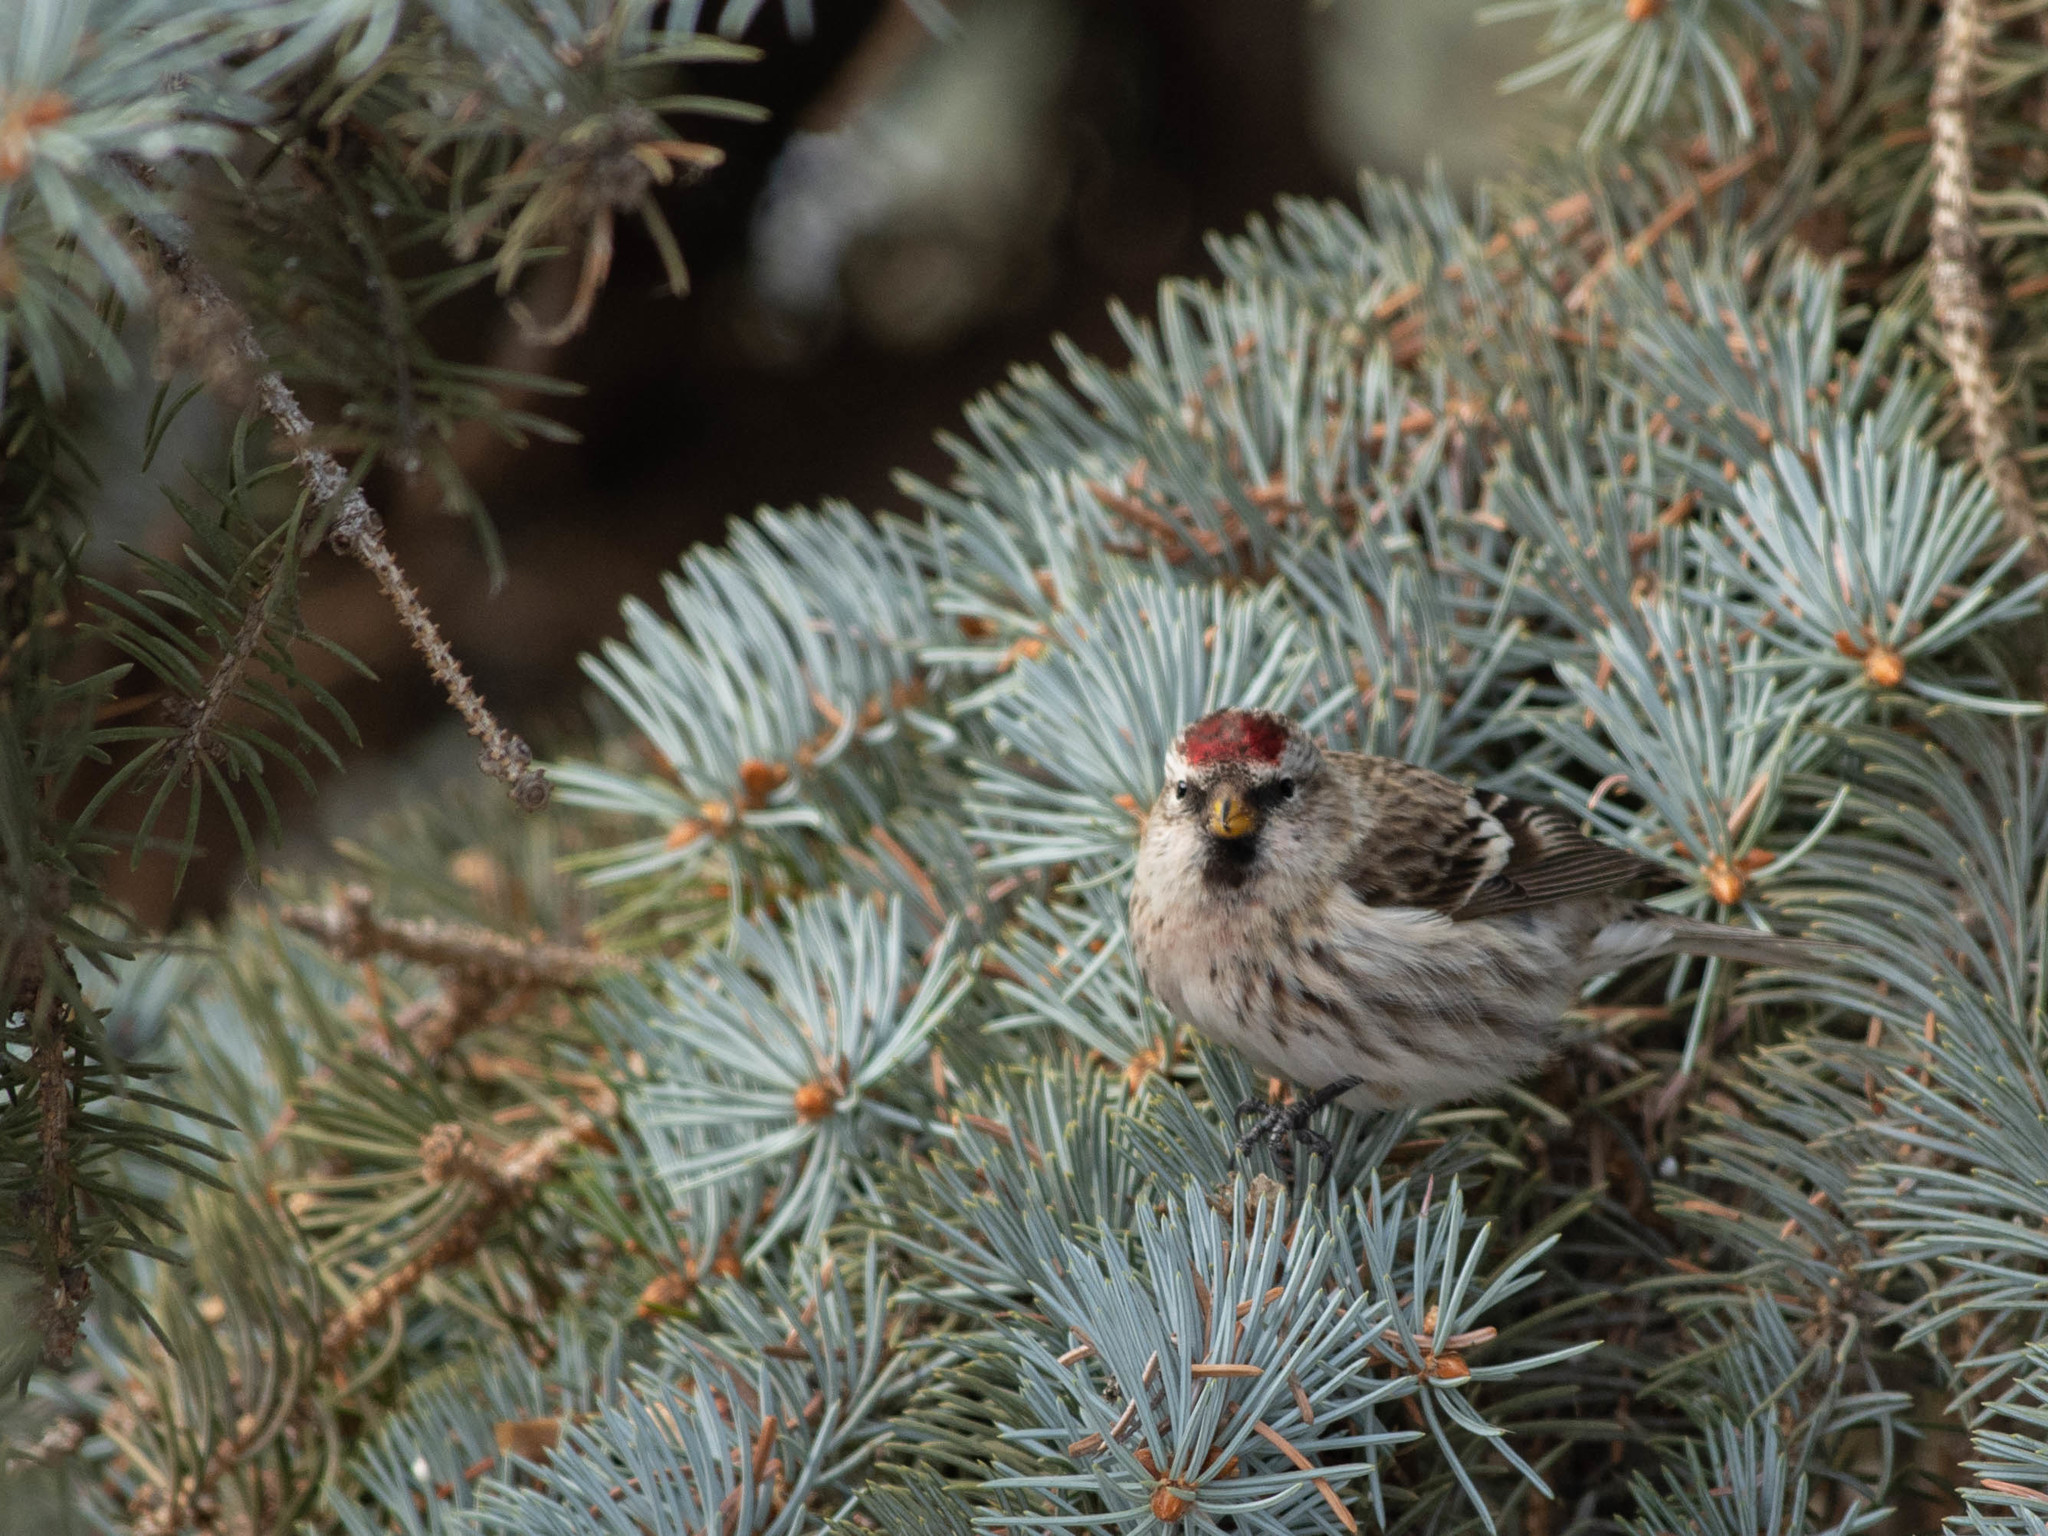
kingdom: Animalia
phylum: Chordata
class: Aves
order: Passeriformes
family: Fringillidae
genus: Acanthis
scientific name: Acanthis flammea
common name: Common redpoll
